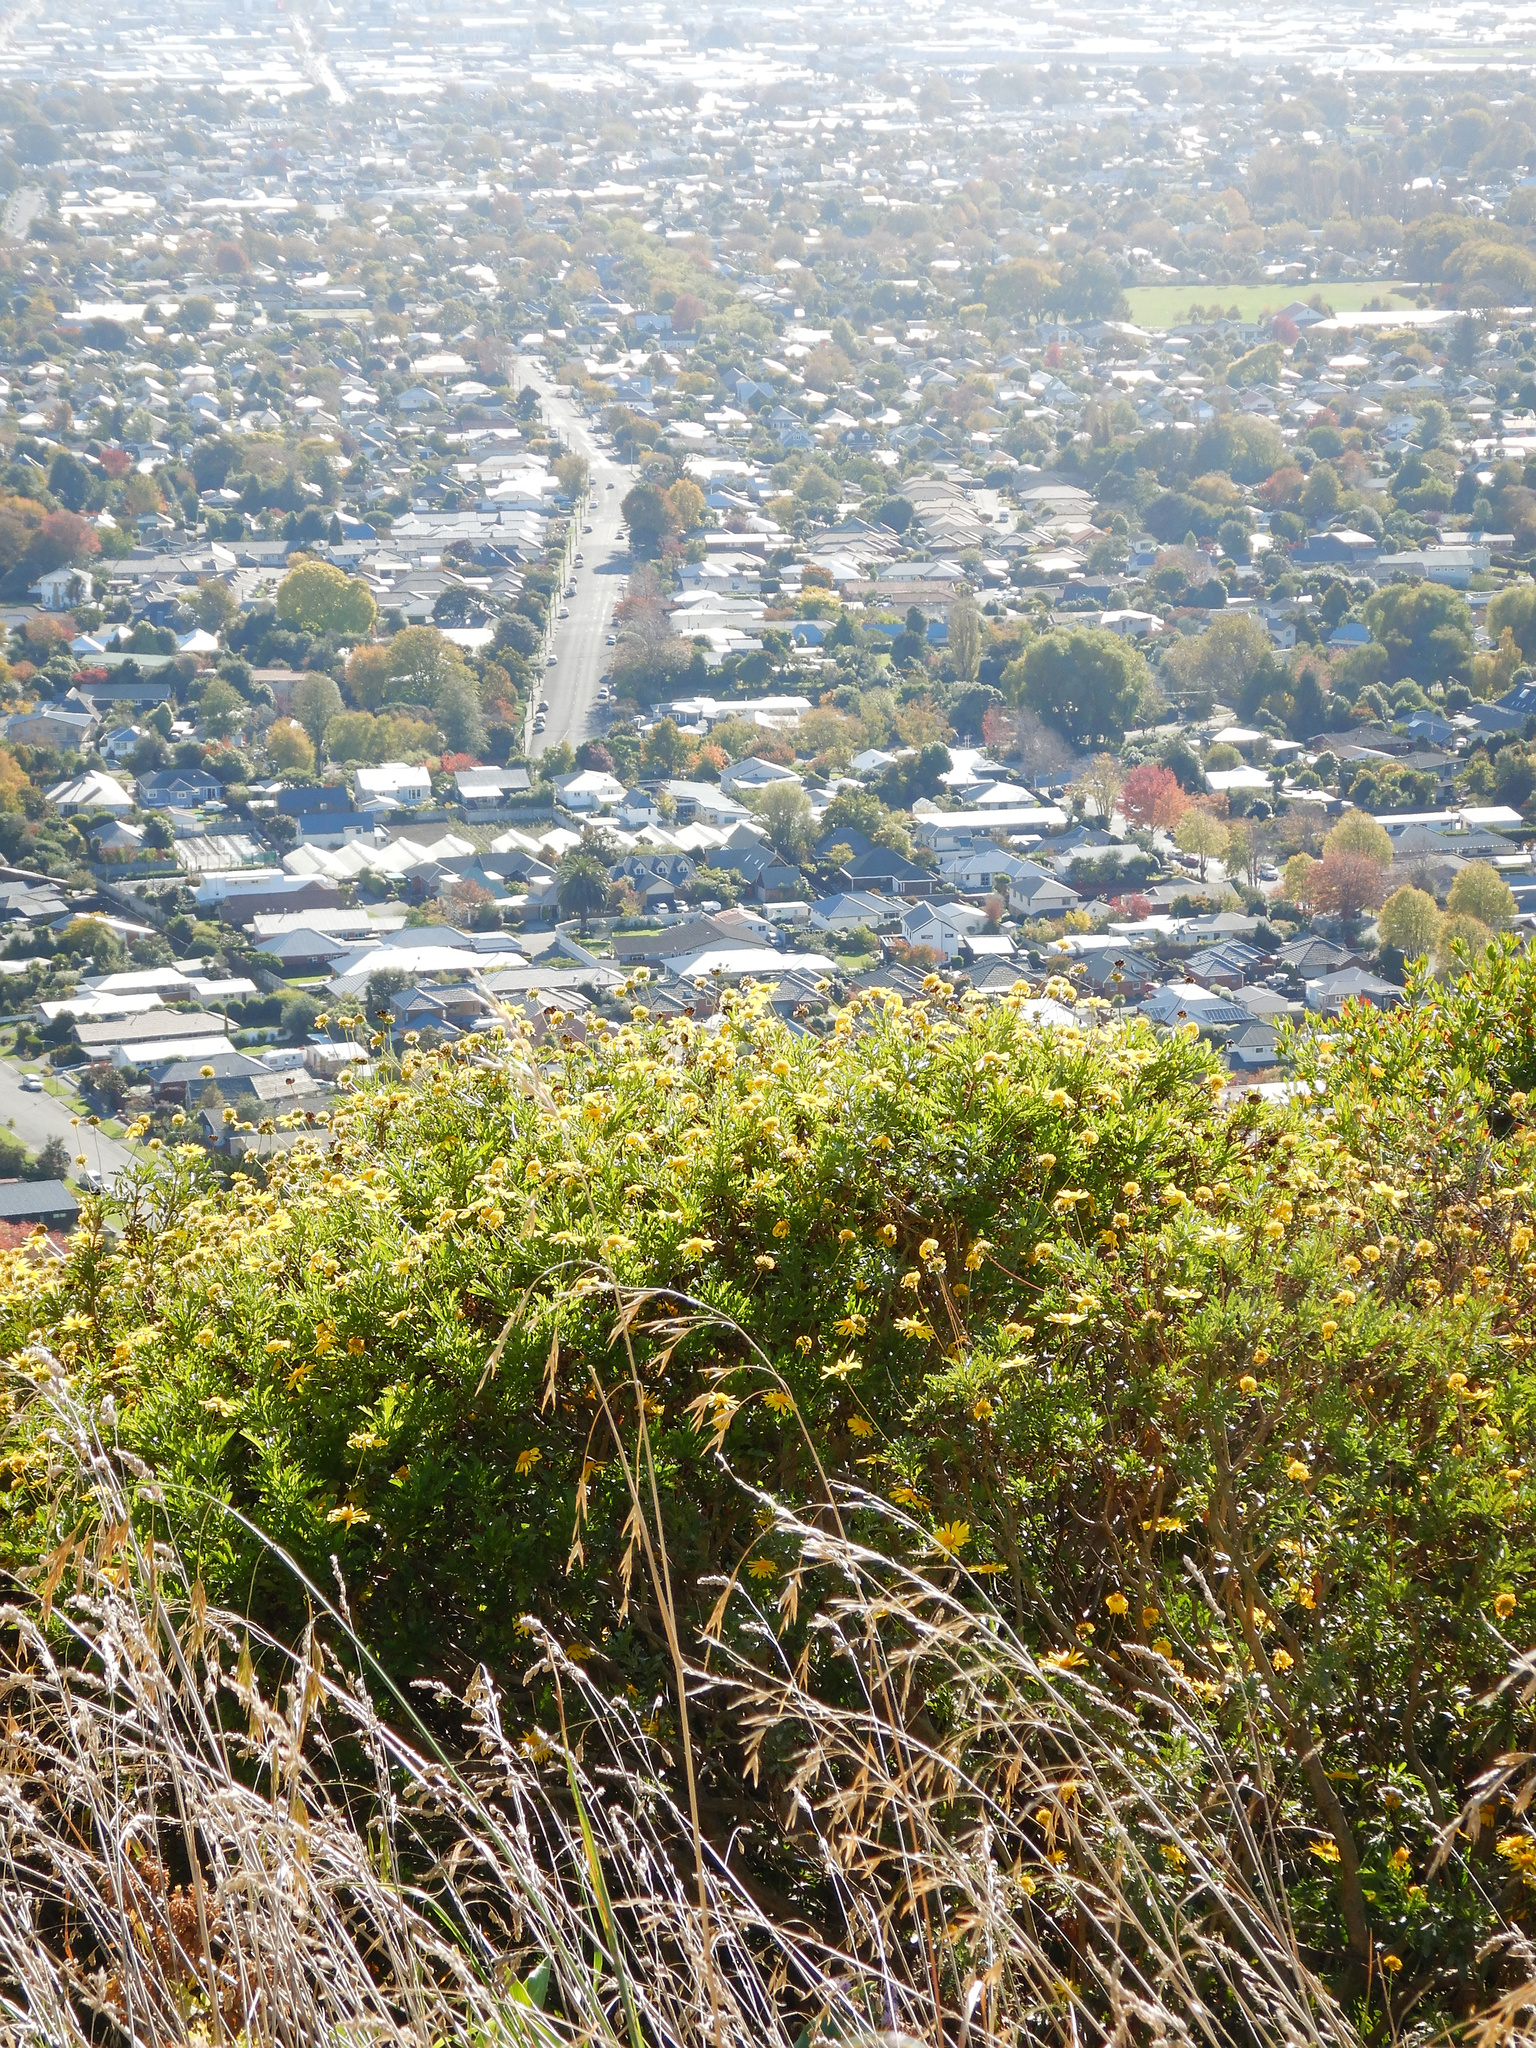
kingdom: Plantae
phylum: Tracheophyta
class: Magnoliopsida
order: Asterales
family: Asteraceae
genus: Osteospermum
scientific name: Osteospermum moniliferum
